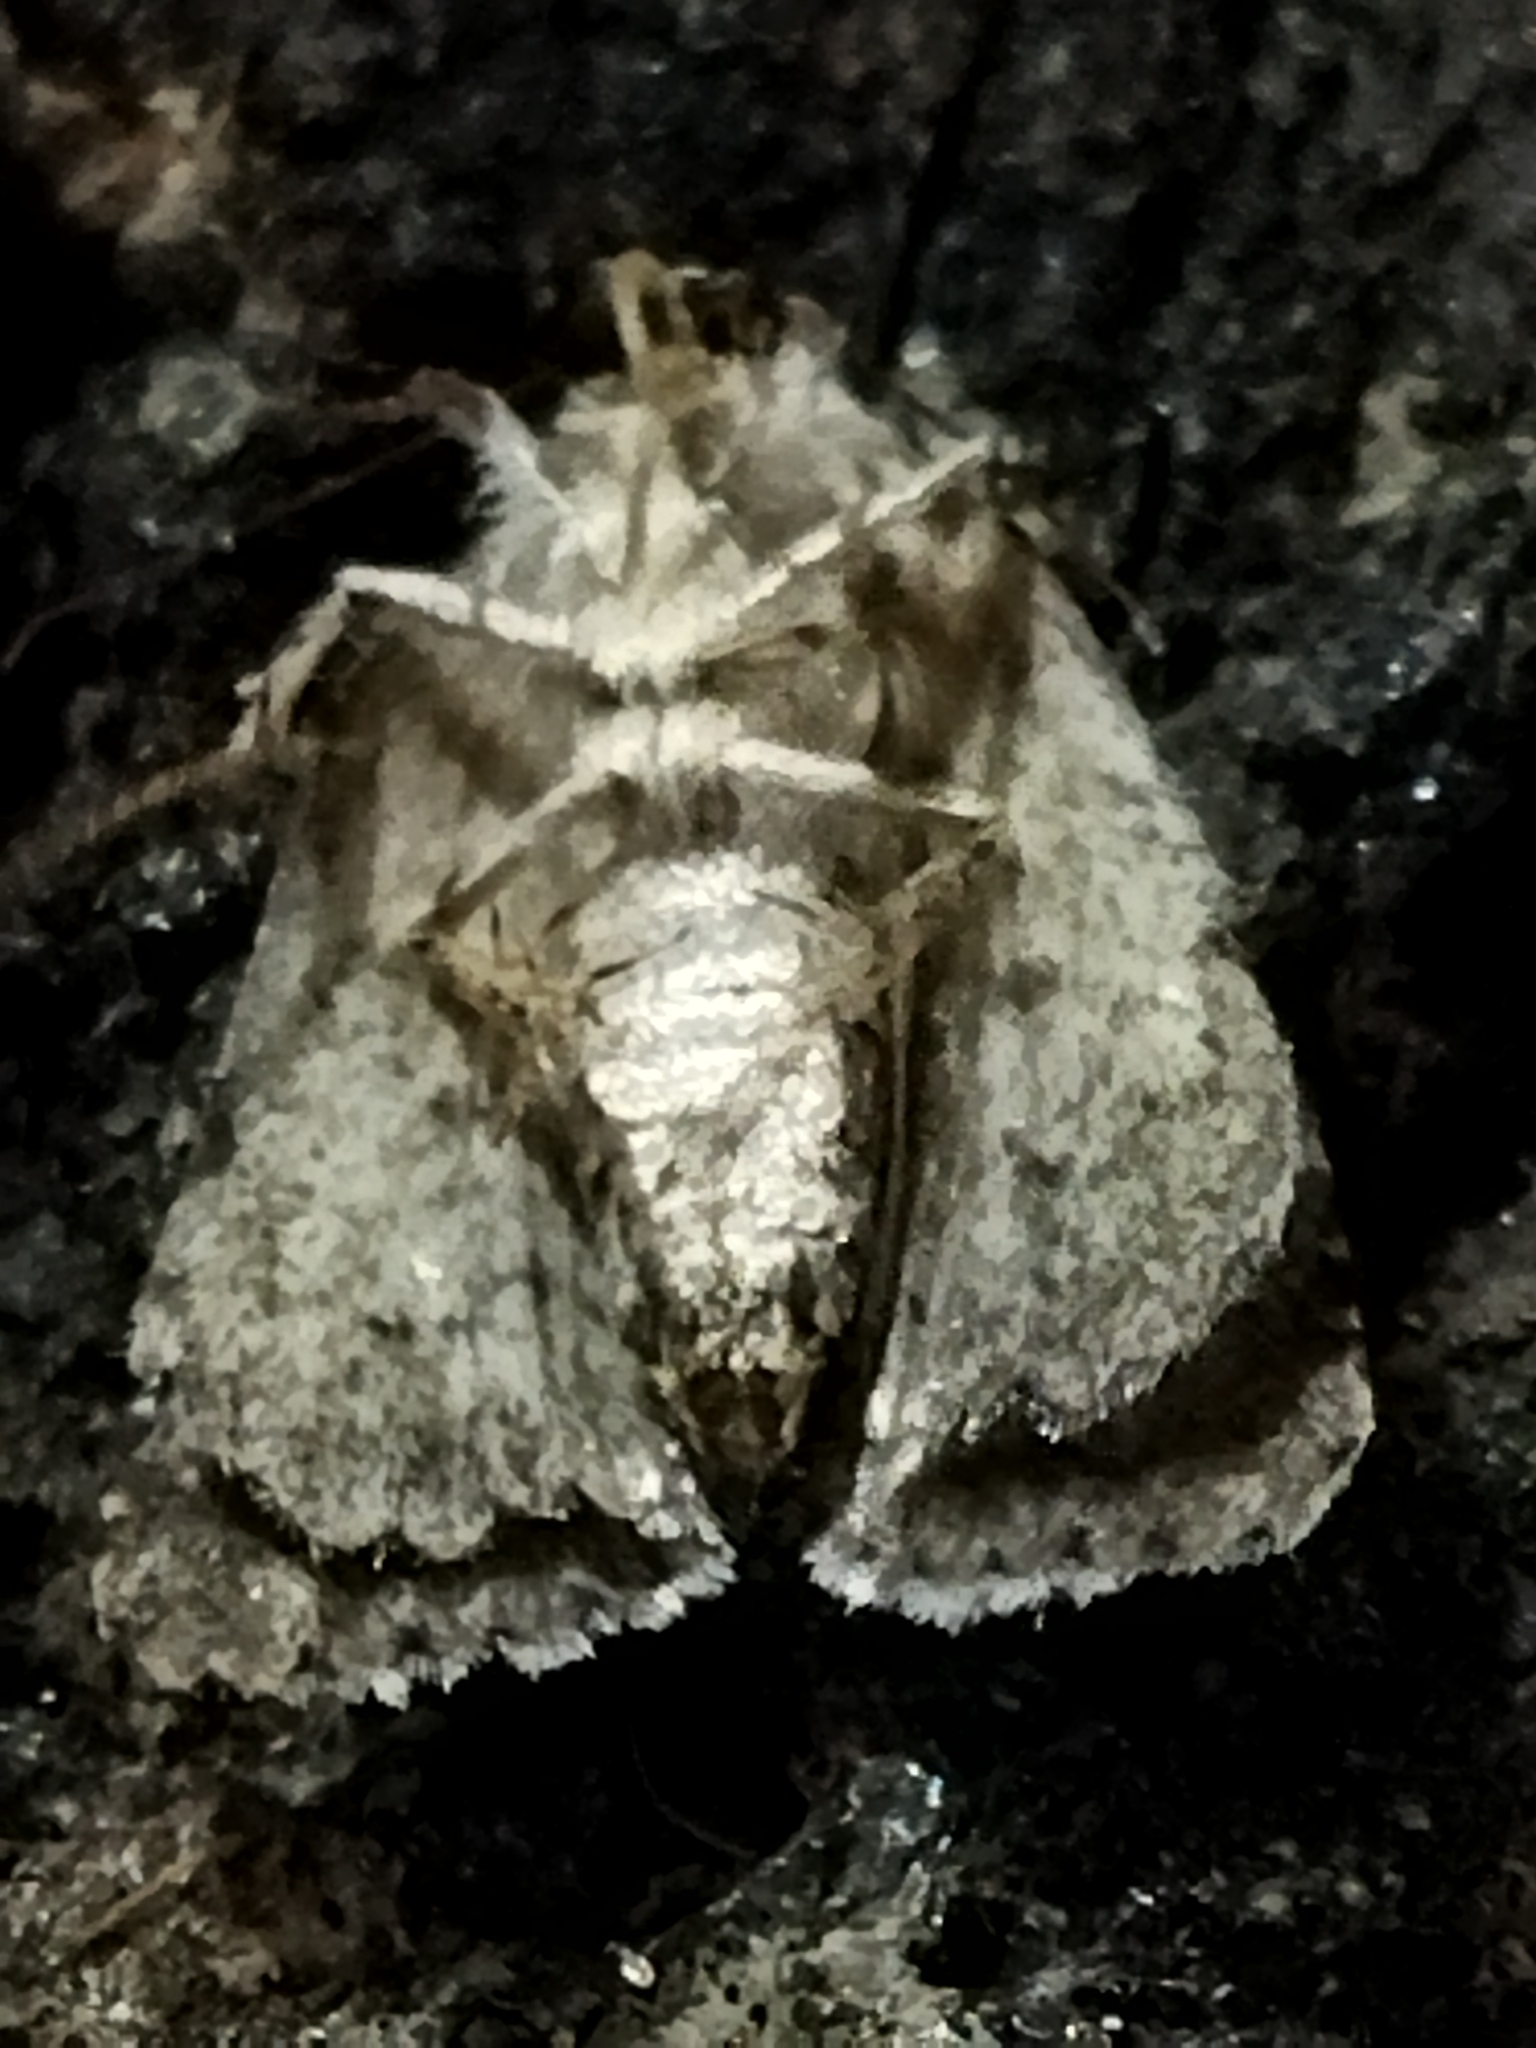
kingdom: Plantae
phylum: Chlorophyta
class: Ulvophyceae
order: Bryopsidales
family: Bryopsidaceae
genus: Bryopsis
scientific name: Bryopsis
